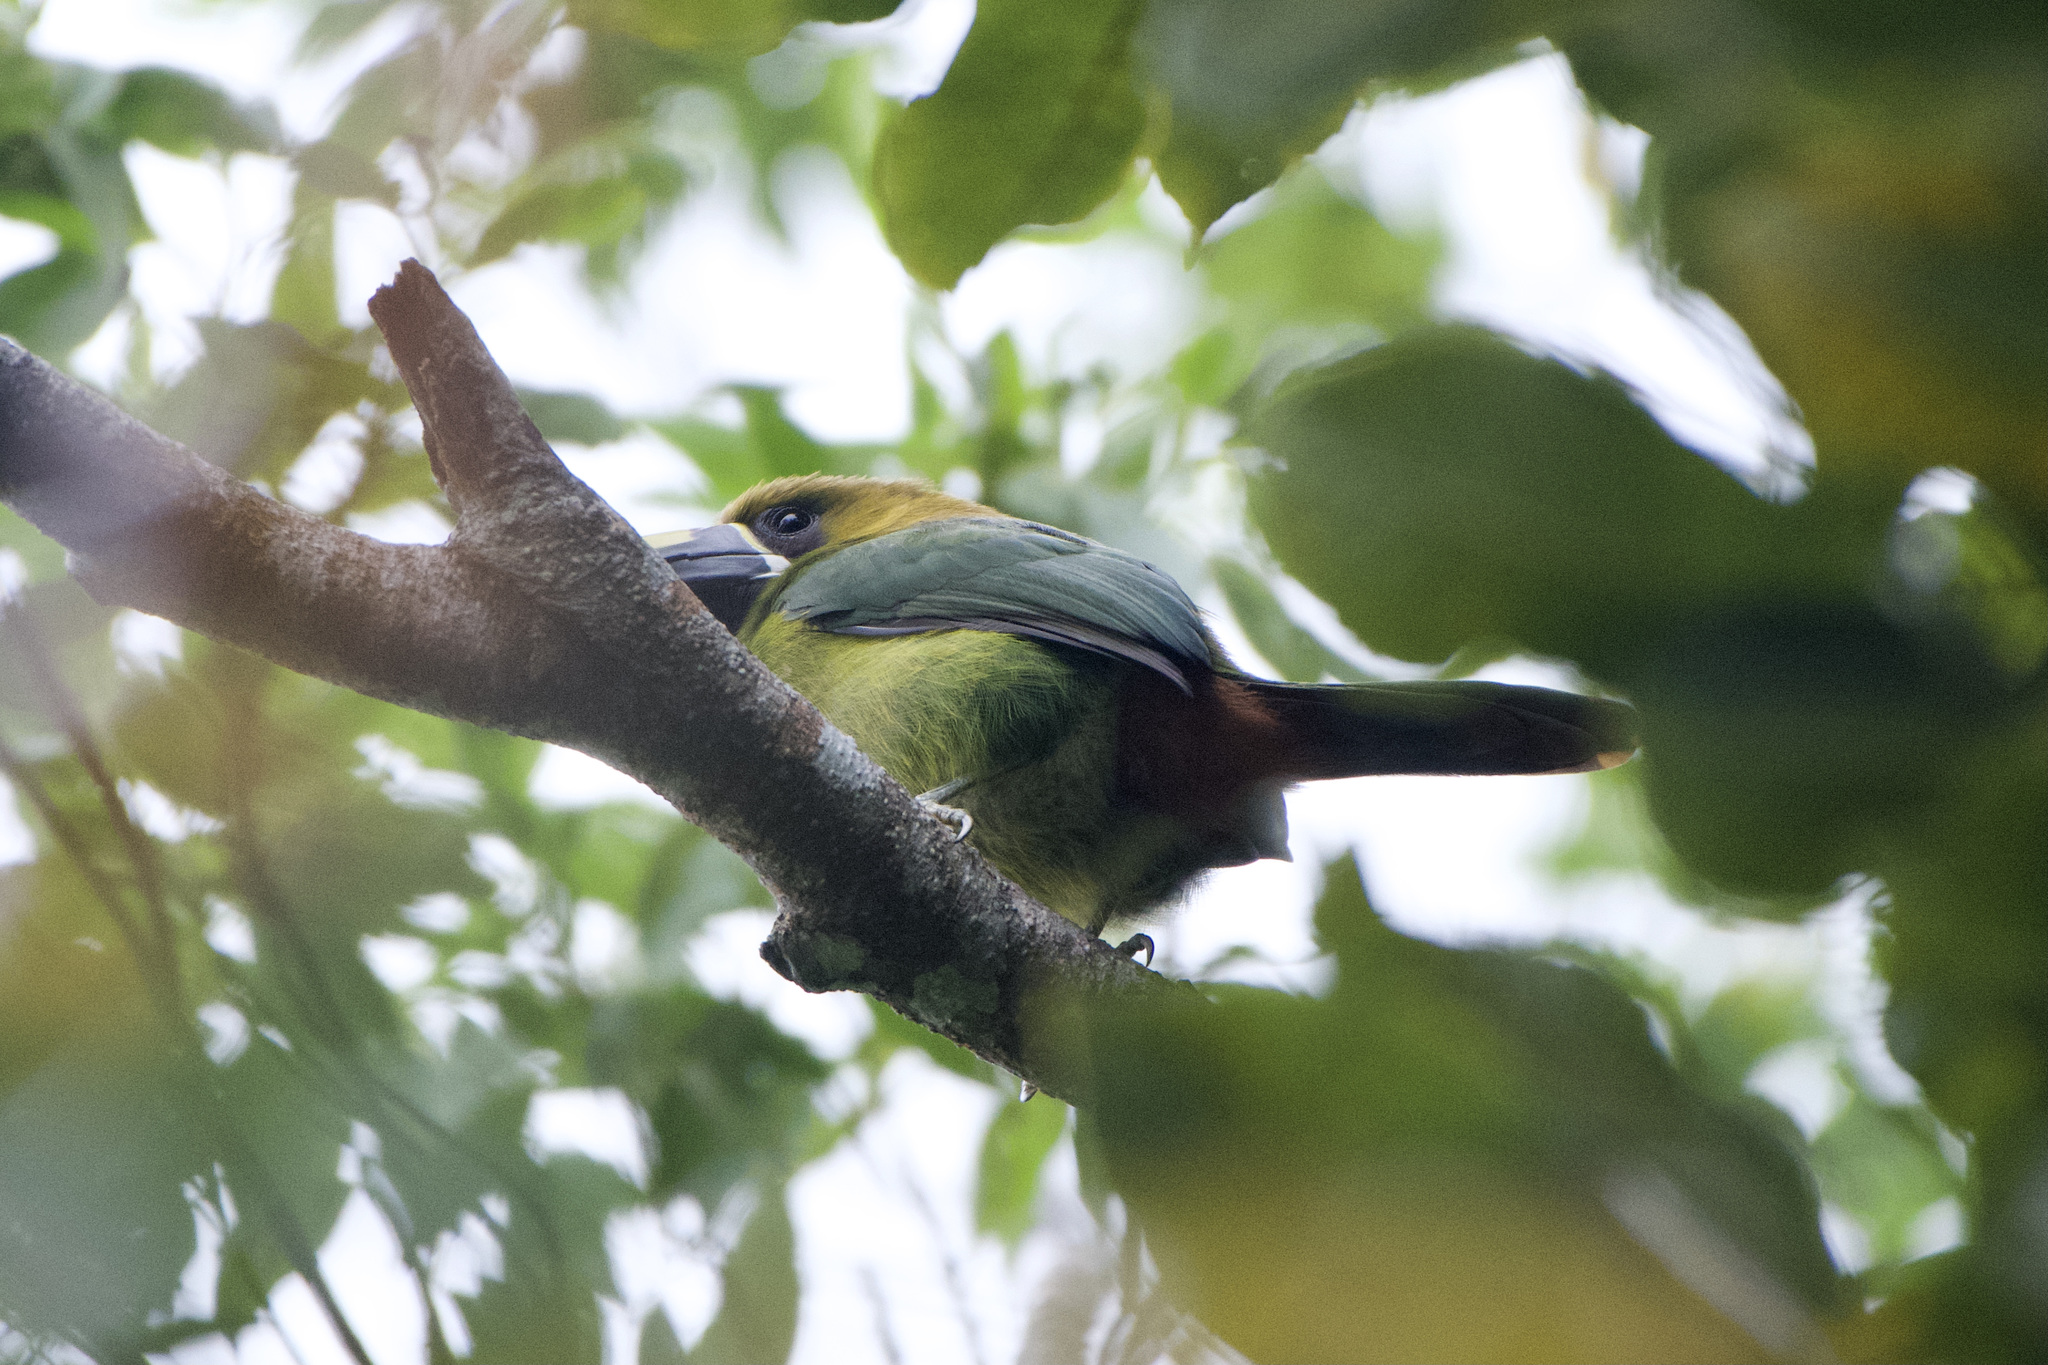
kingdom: Animalia
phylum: Chordata
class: Aves
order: Piciformes
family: Ramphastidae
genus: Aulacorhynchus
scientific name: Aulacorhynchus prasinus
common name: Emerald toucanet
